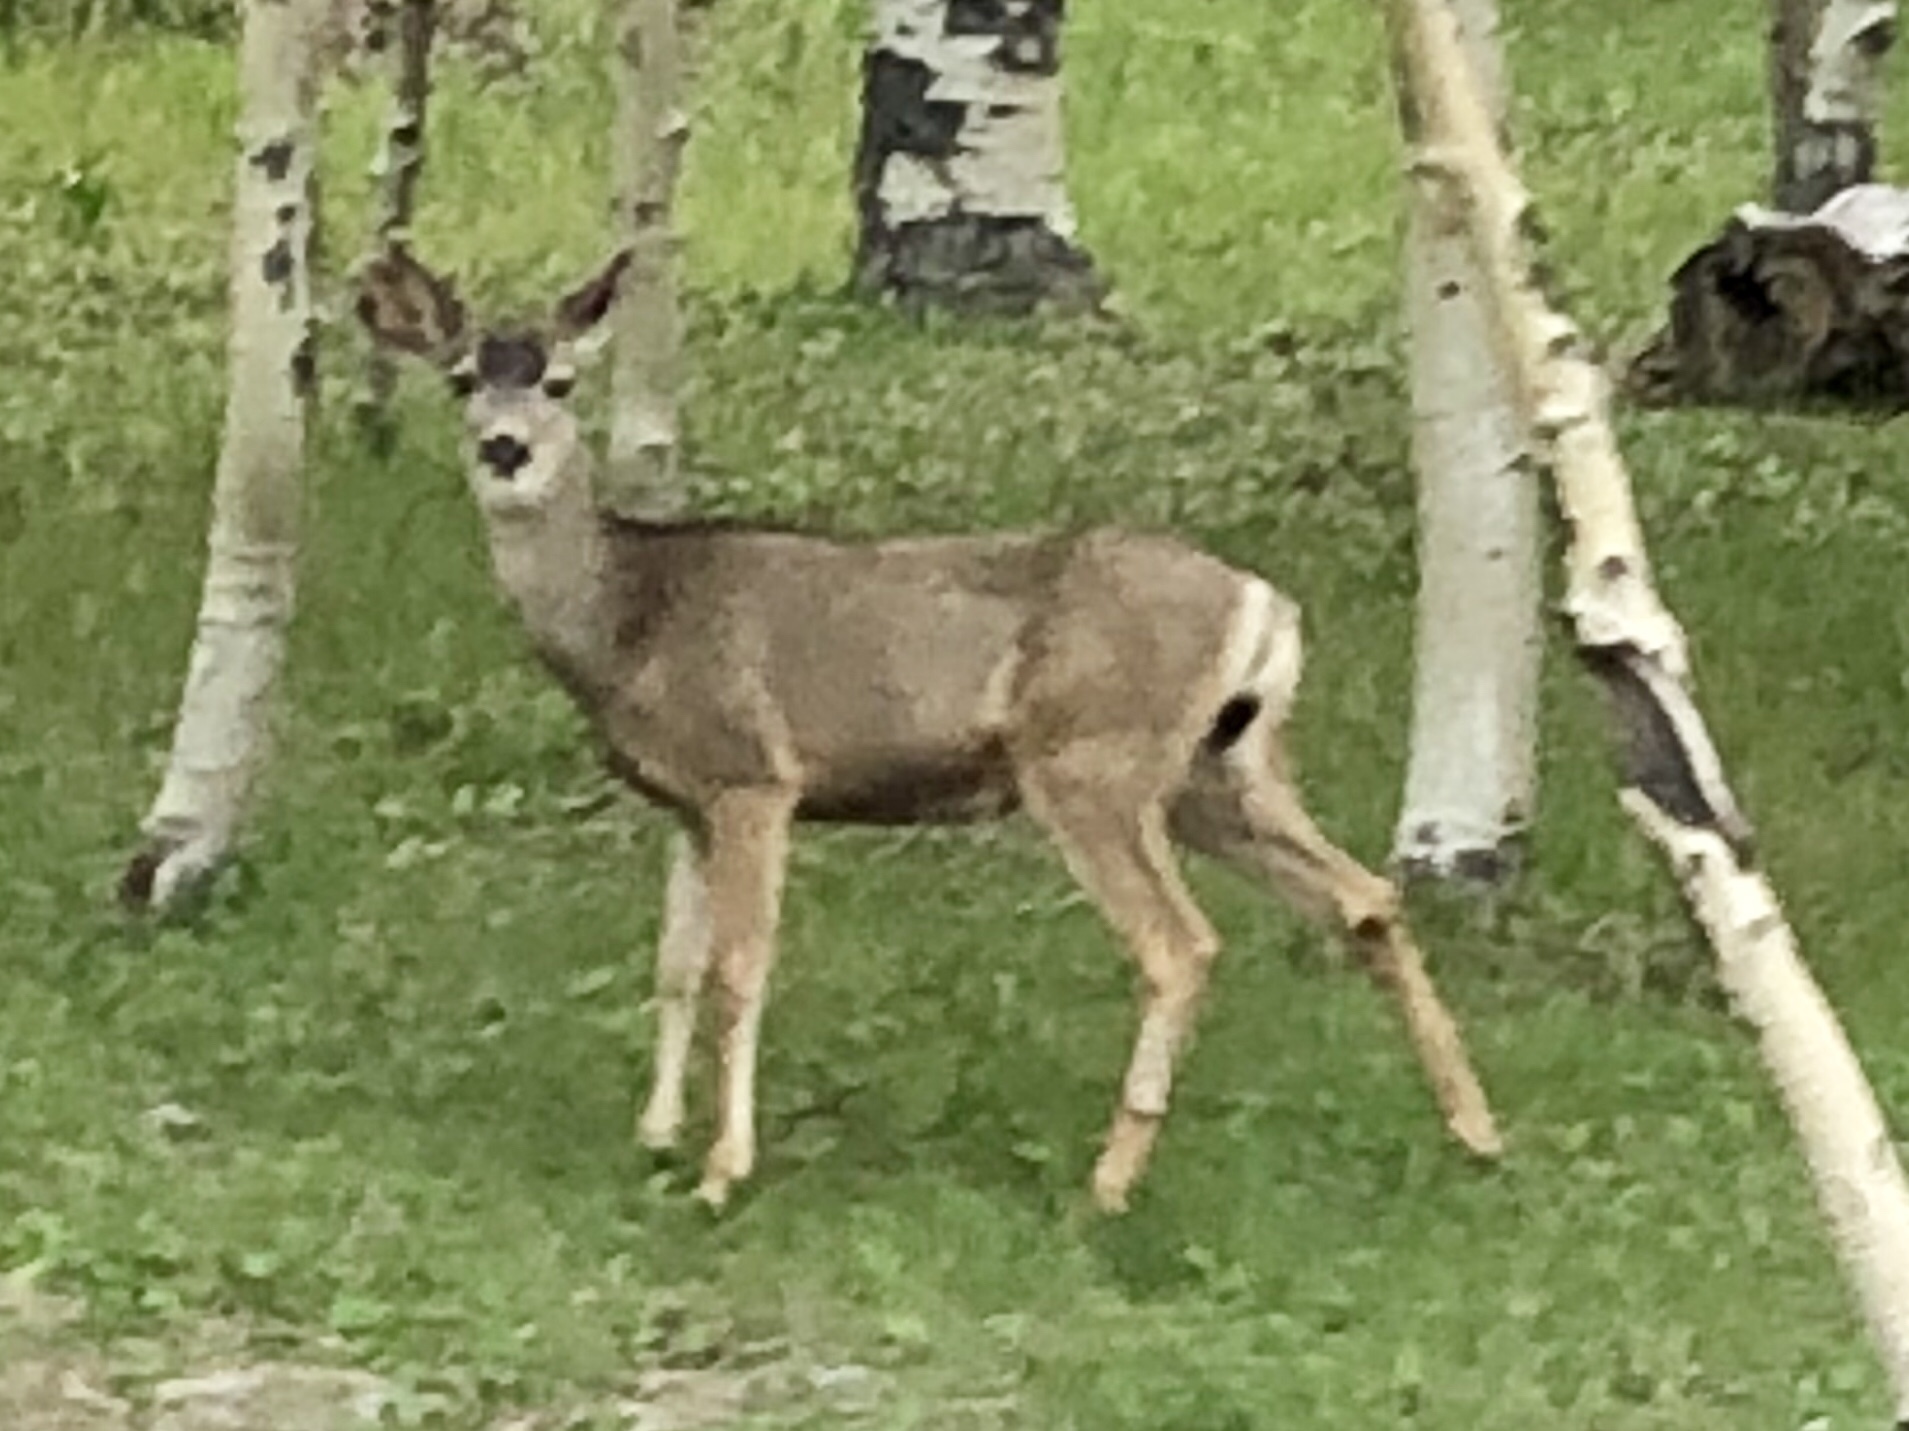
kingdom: Animalia
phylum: Chordata
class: Mammalia
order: Artiodactyla
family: Cervidae
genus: Odocoileus
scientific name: Odocoileus hemionus
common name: Mule deer
